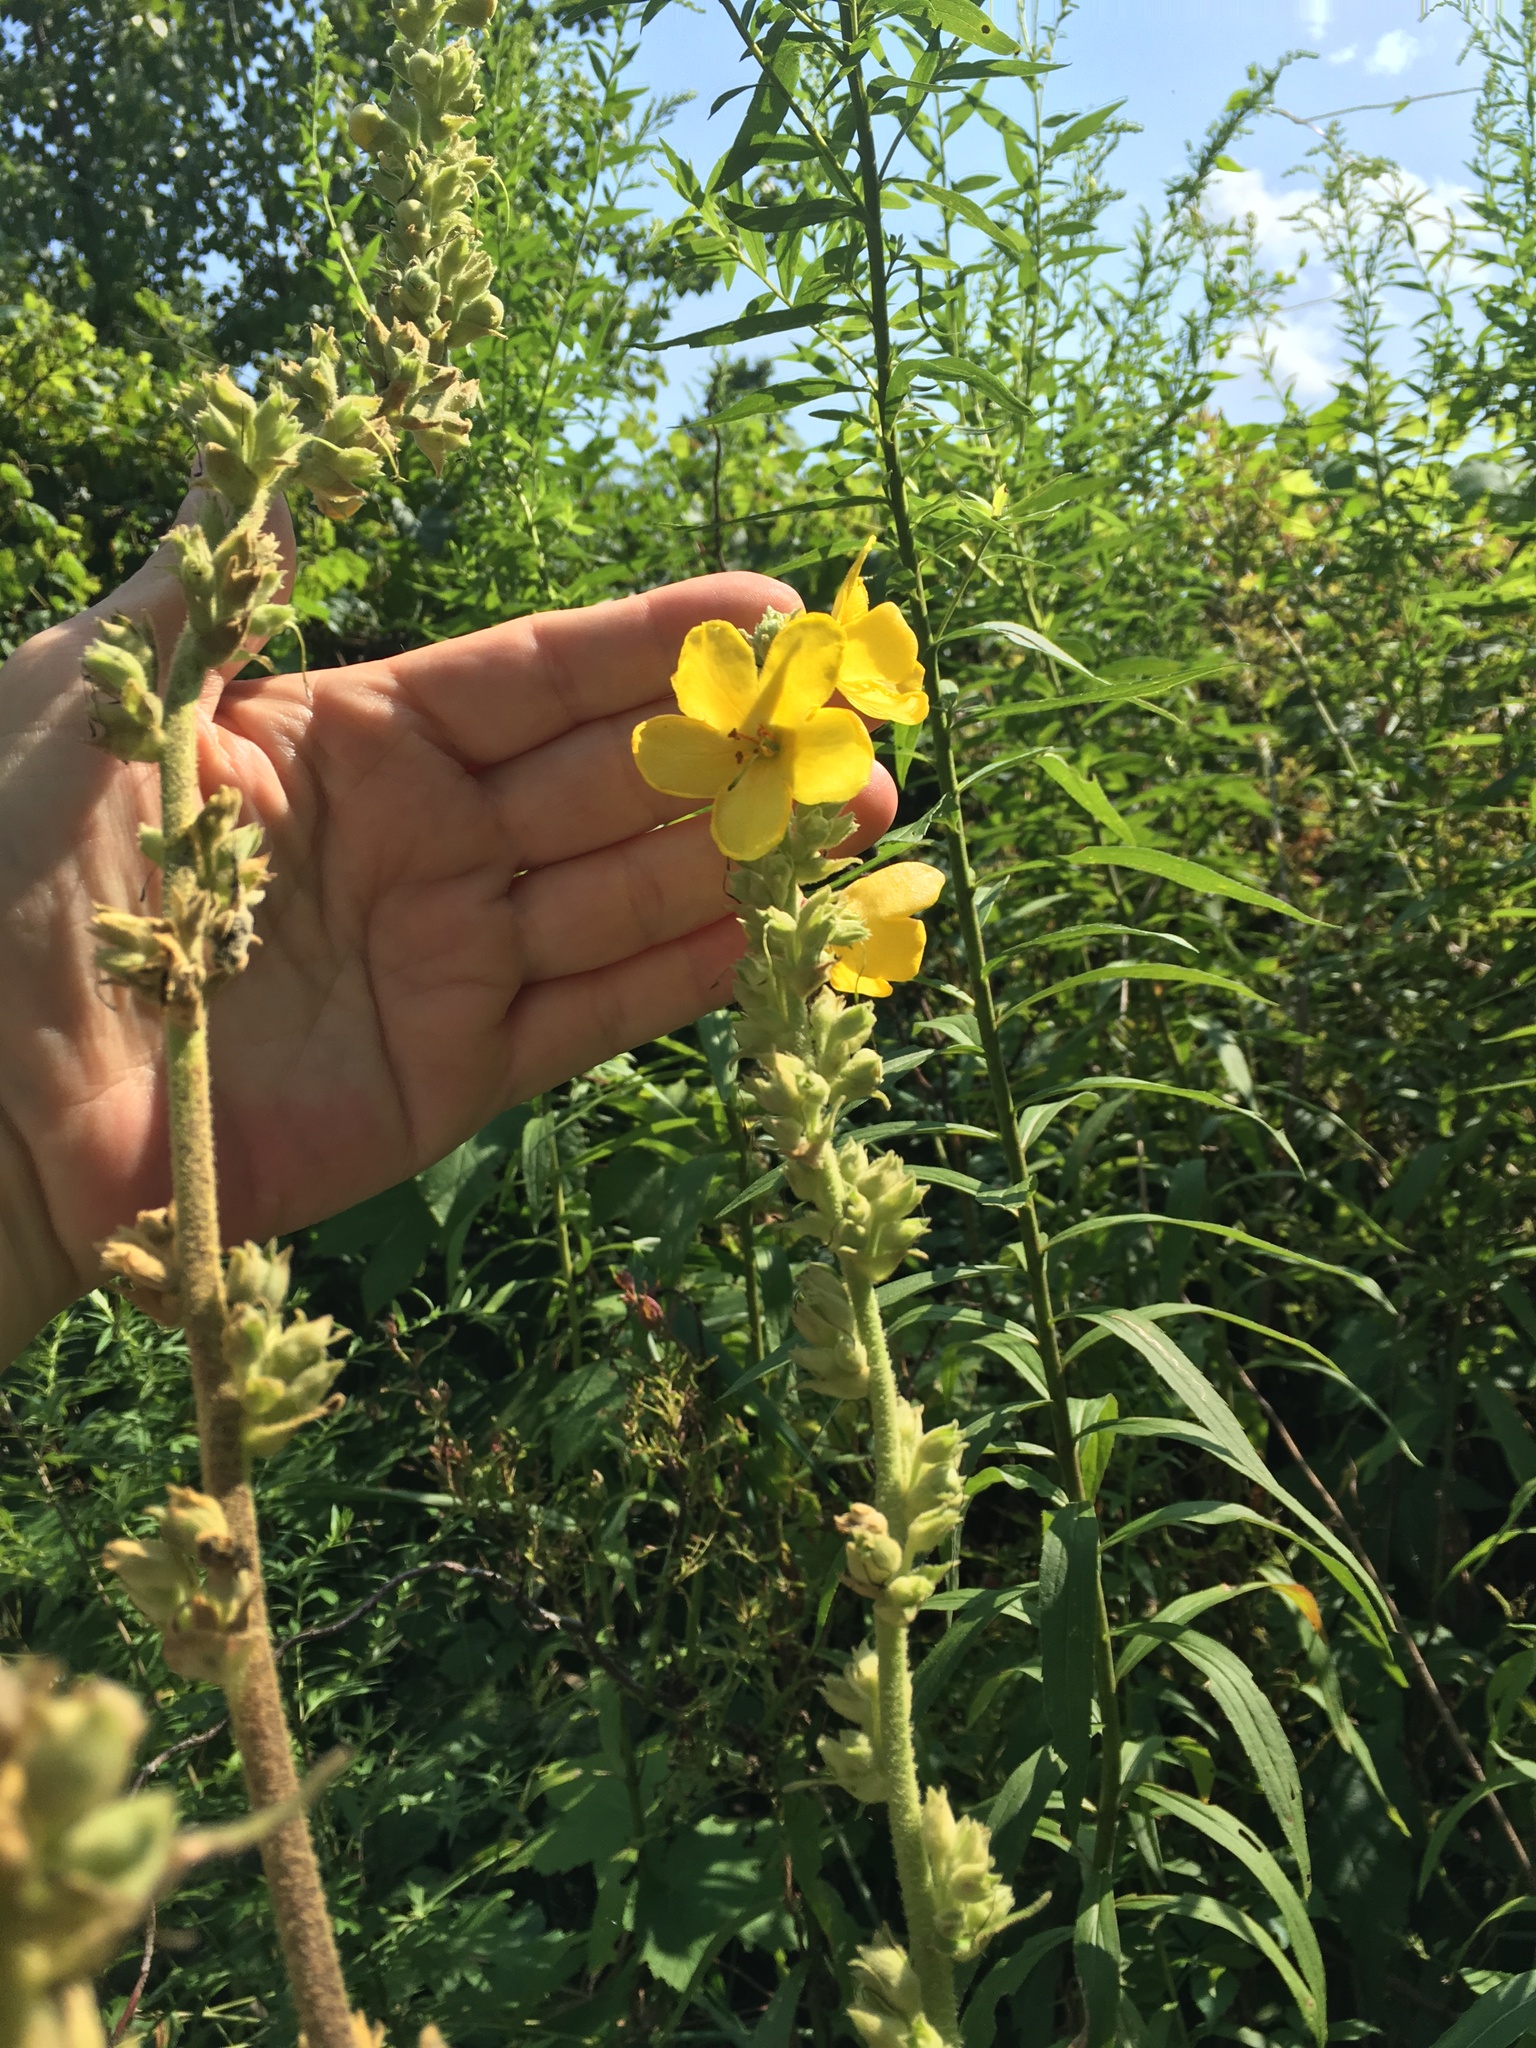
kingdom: Plantae
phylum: Tracheophyta
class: Magnoliopsida
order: Lamiales
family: Scrophulariaceae
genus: Verbascum
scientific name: Verbascum phlomoides
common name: Orange mullein
